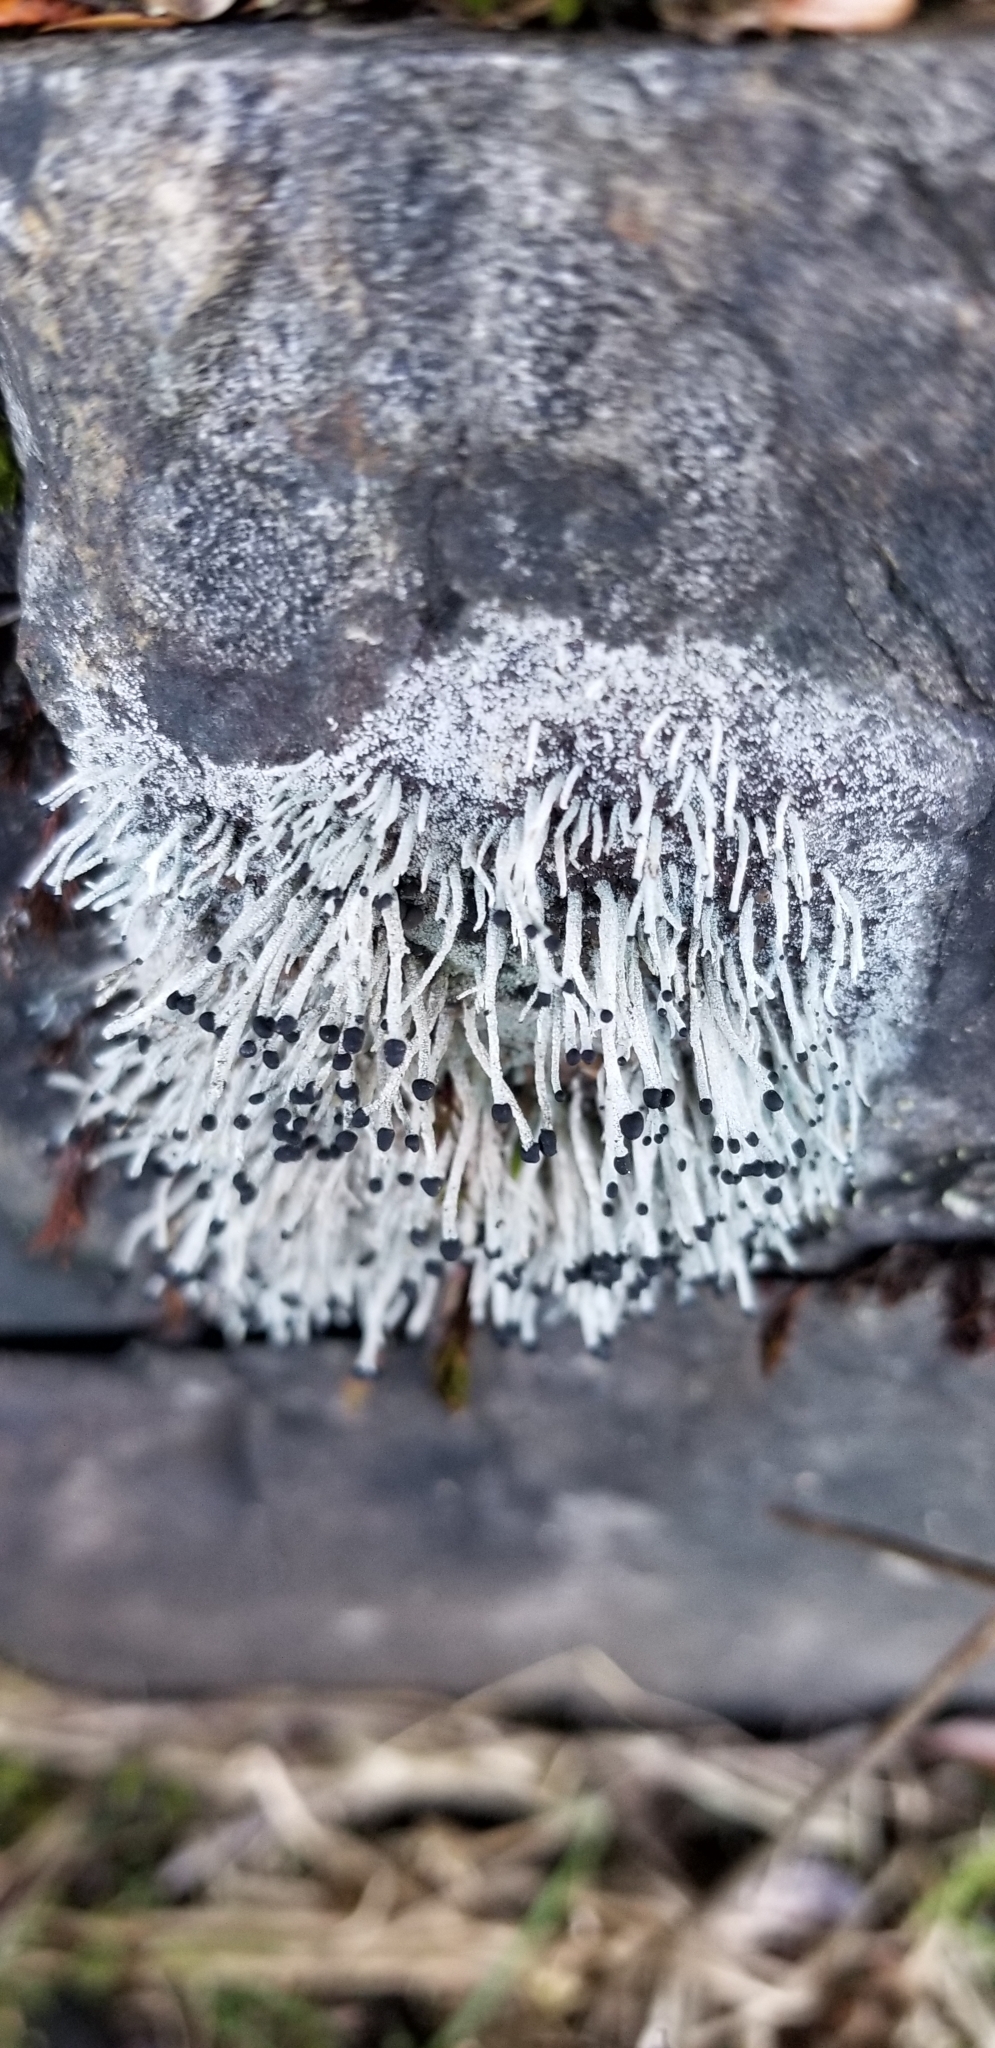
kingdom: Fungi
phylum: Ascomycota
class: Lecanoromycetes
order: Lecanorales
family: Cladoniaceae
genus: Pilophorus
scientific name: Pilophorus acicularis
